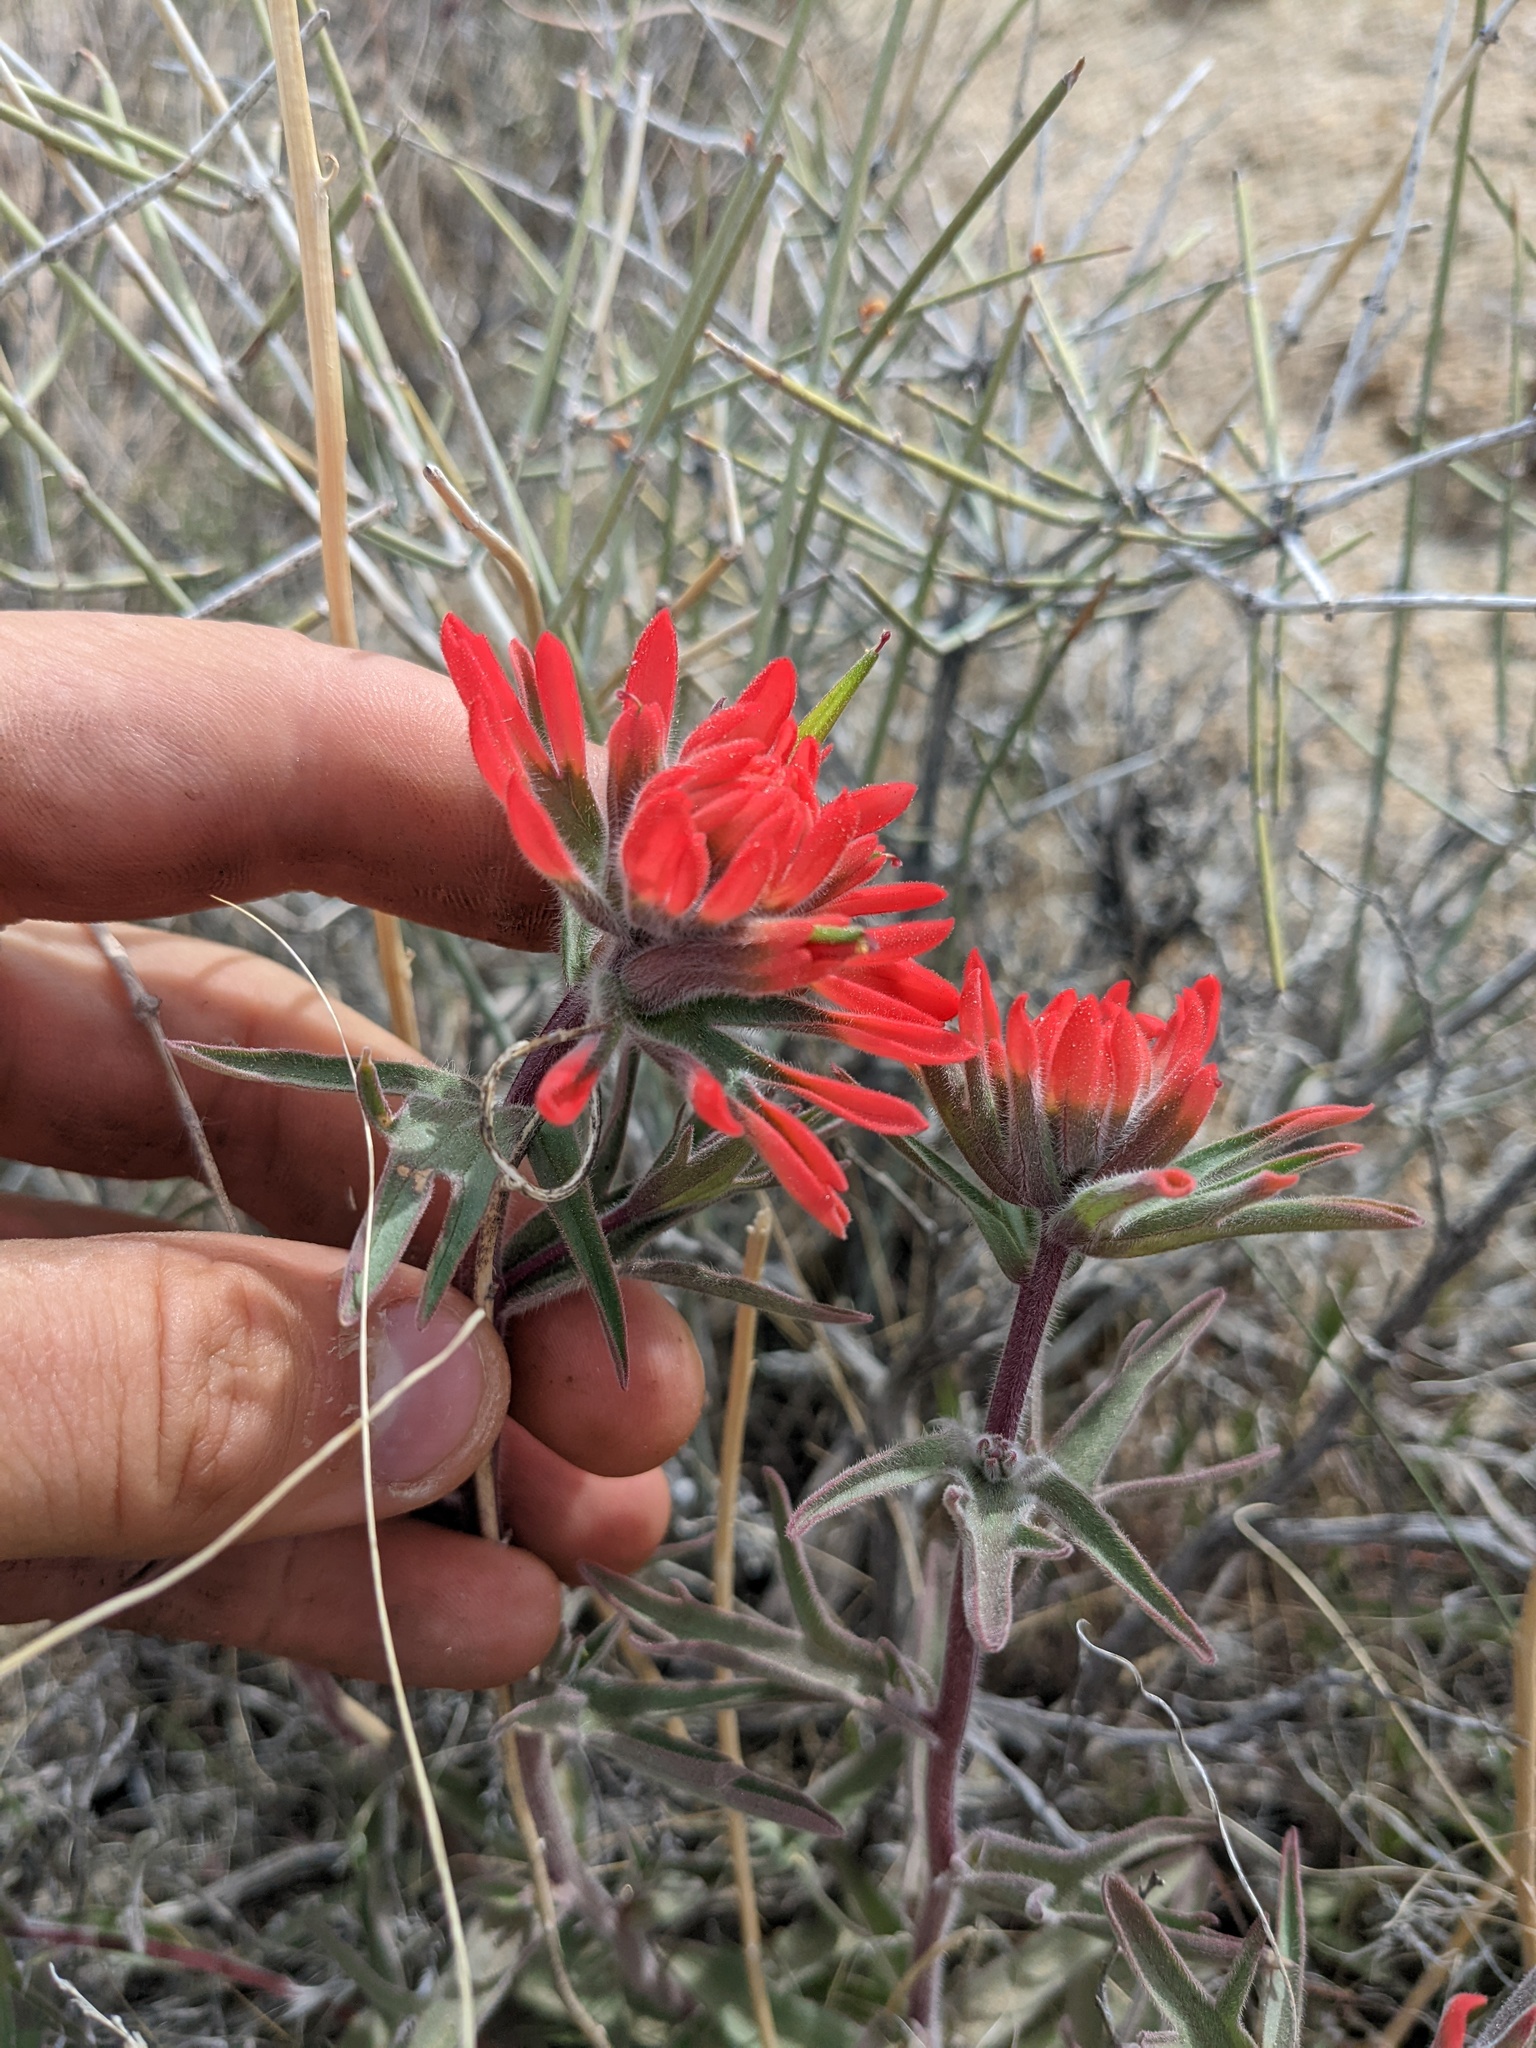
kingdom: Plantae
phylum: Tracheophyta
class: Magnoliopsida
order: Lamiales
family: Orobanchaceae
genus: Castilleja
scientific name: Castilleja chromosa
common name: Desert paintbrush
